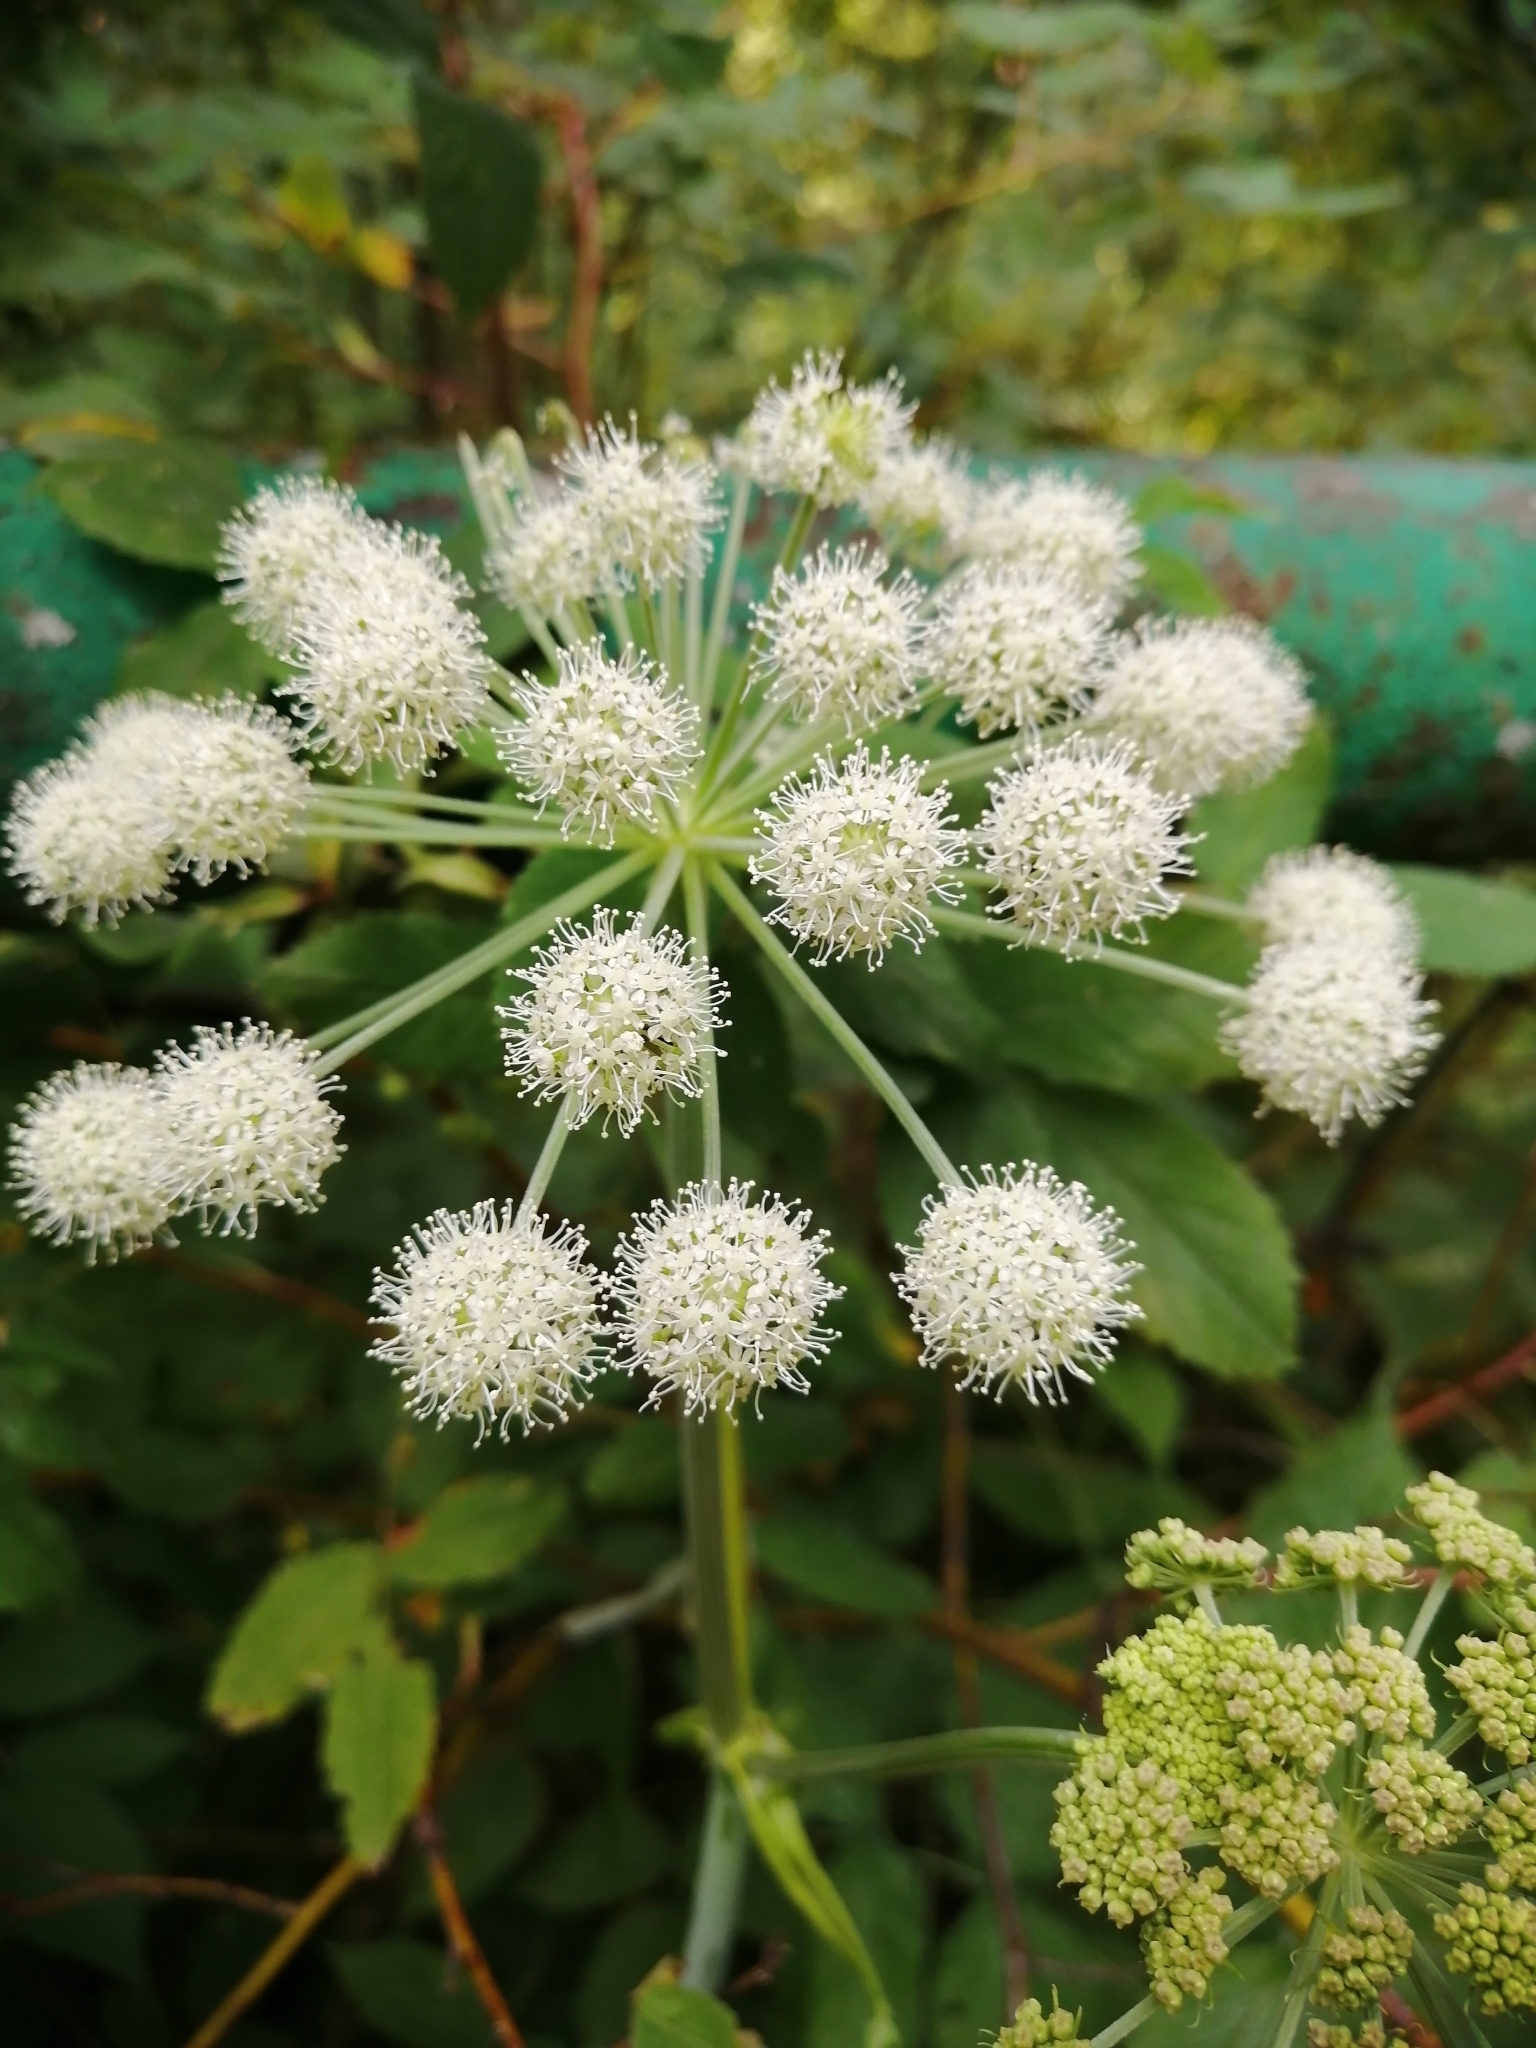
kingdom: Plantae
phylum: Tracheophyta
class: Magnoliopsida
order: Apiales
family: Apiaceae
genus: Angelica
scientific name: Angelica sylvestris
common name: Wild angelica
